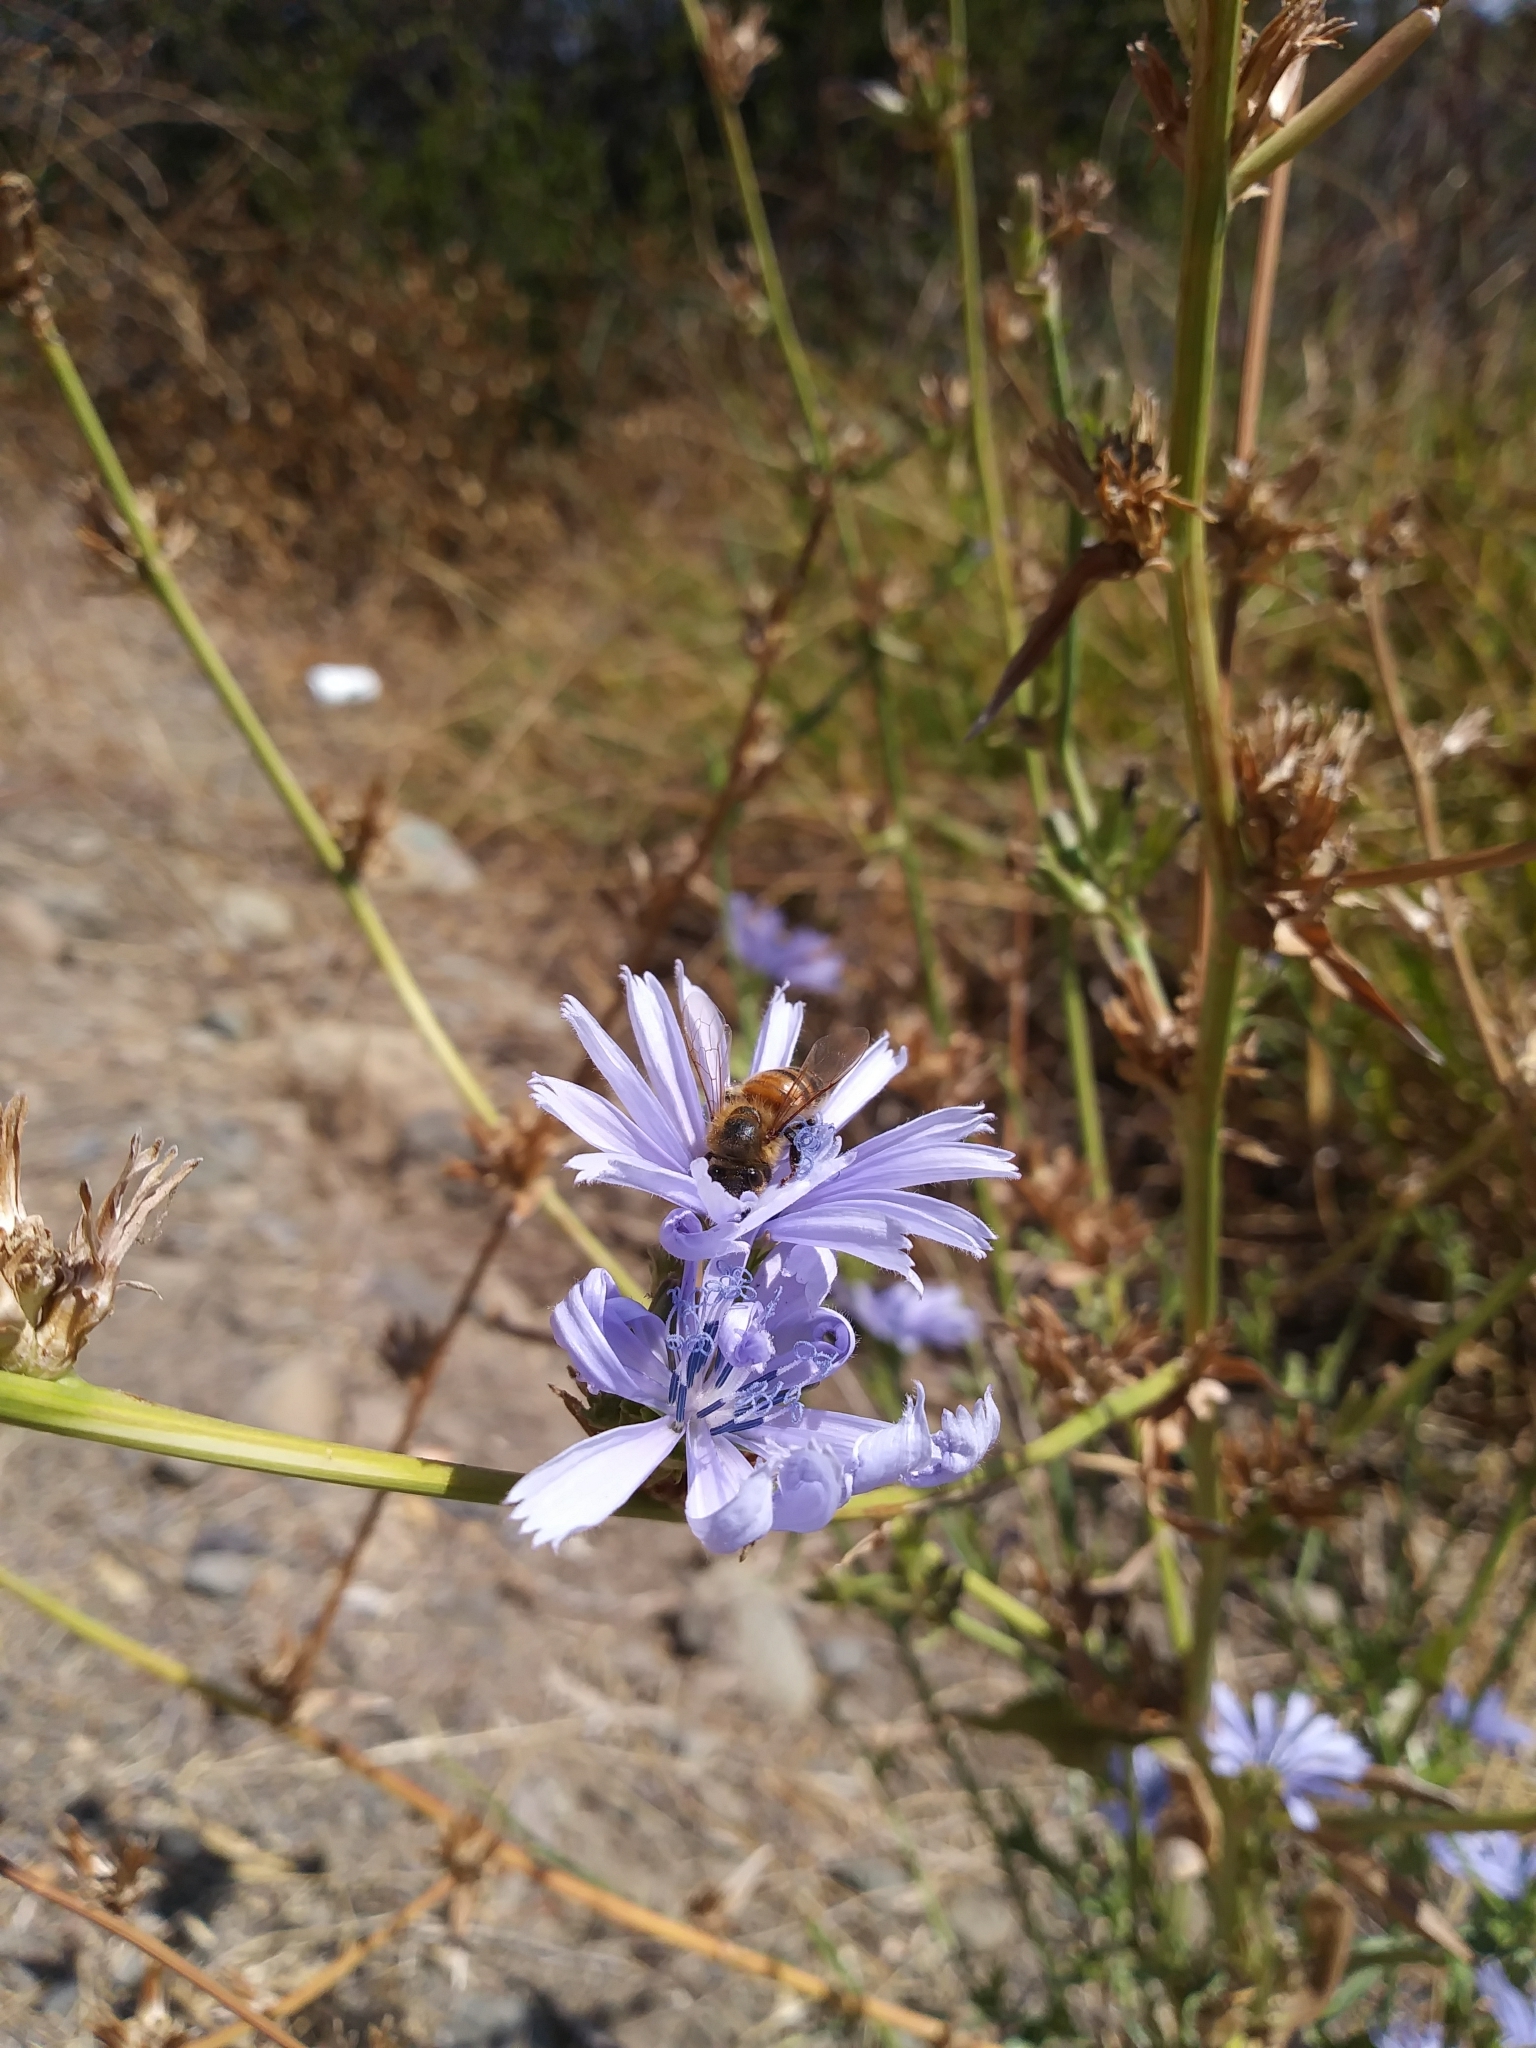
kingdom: Plantae
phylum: Tracheophyta
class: Magnoliopsida
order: Asterales
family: Asteraceae
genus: Cichorium
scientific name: Cichorium intybus
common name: Chicory
